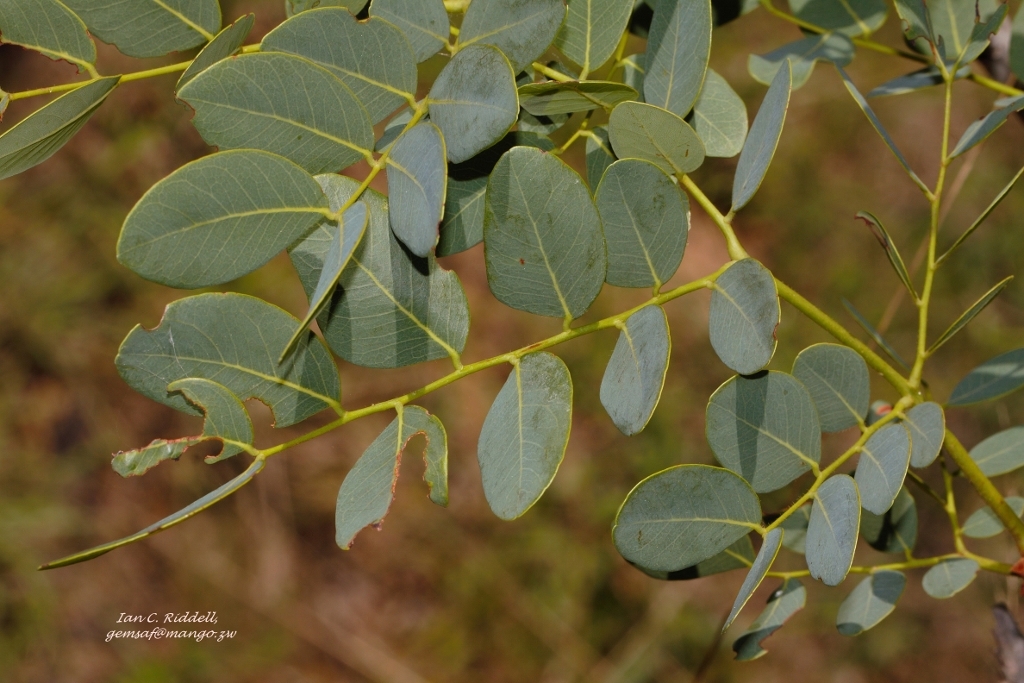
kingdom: Plantae
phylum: Tracheophyta
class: Magnoliopsida
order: Fabales
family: Fabaceae
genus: Burkea
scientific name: Burkea africana
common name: Mkalati tree
